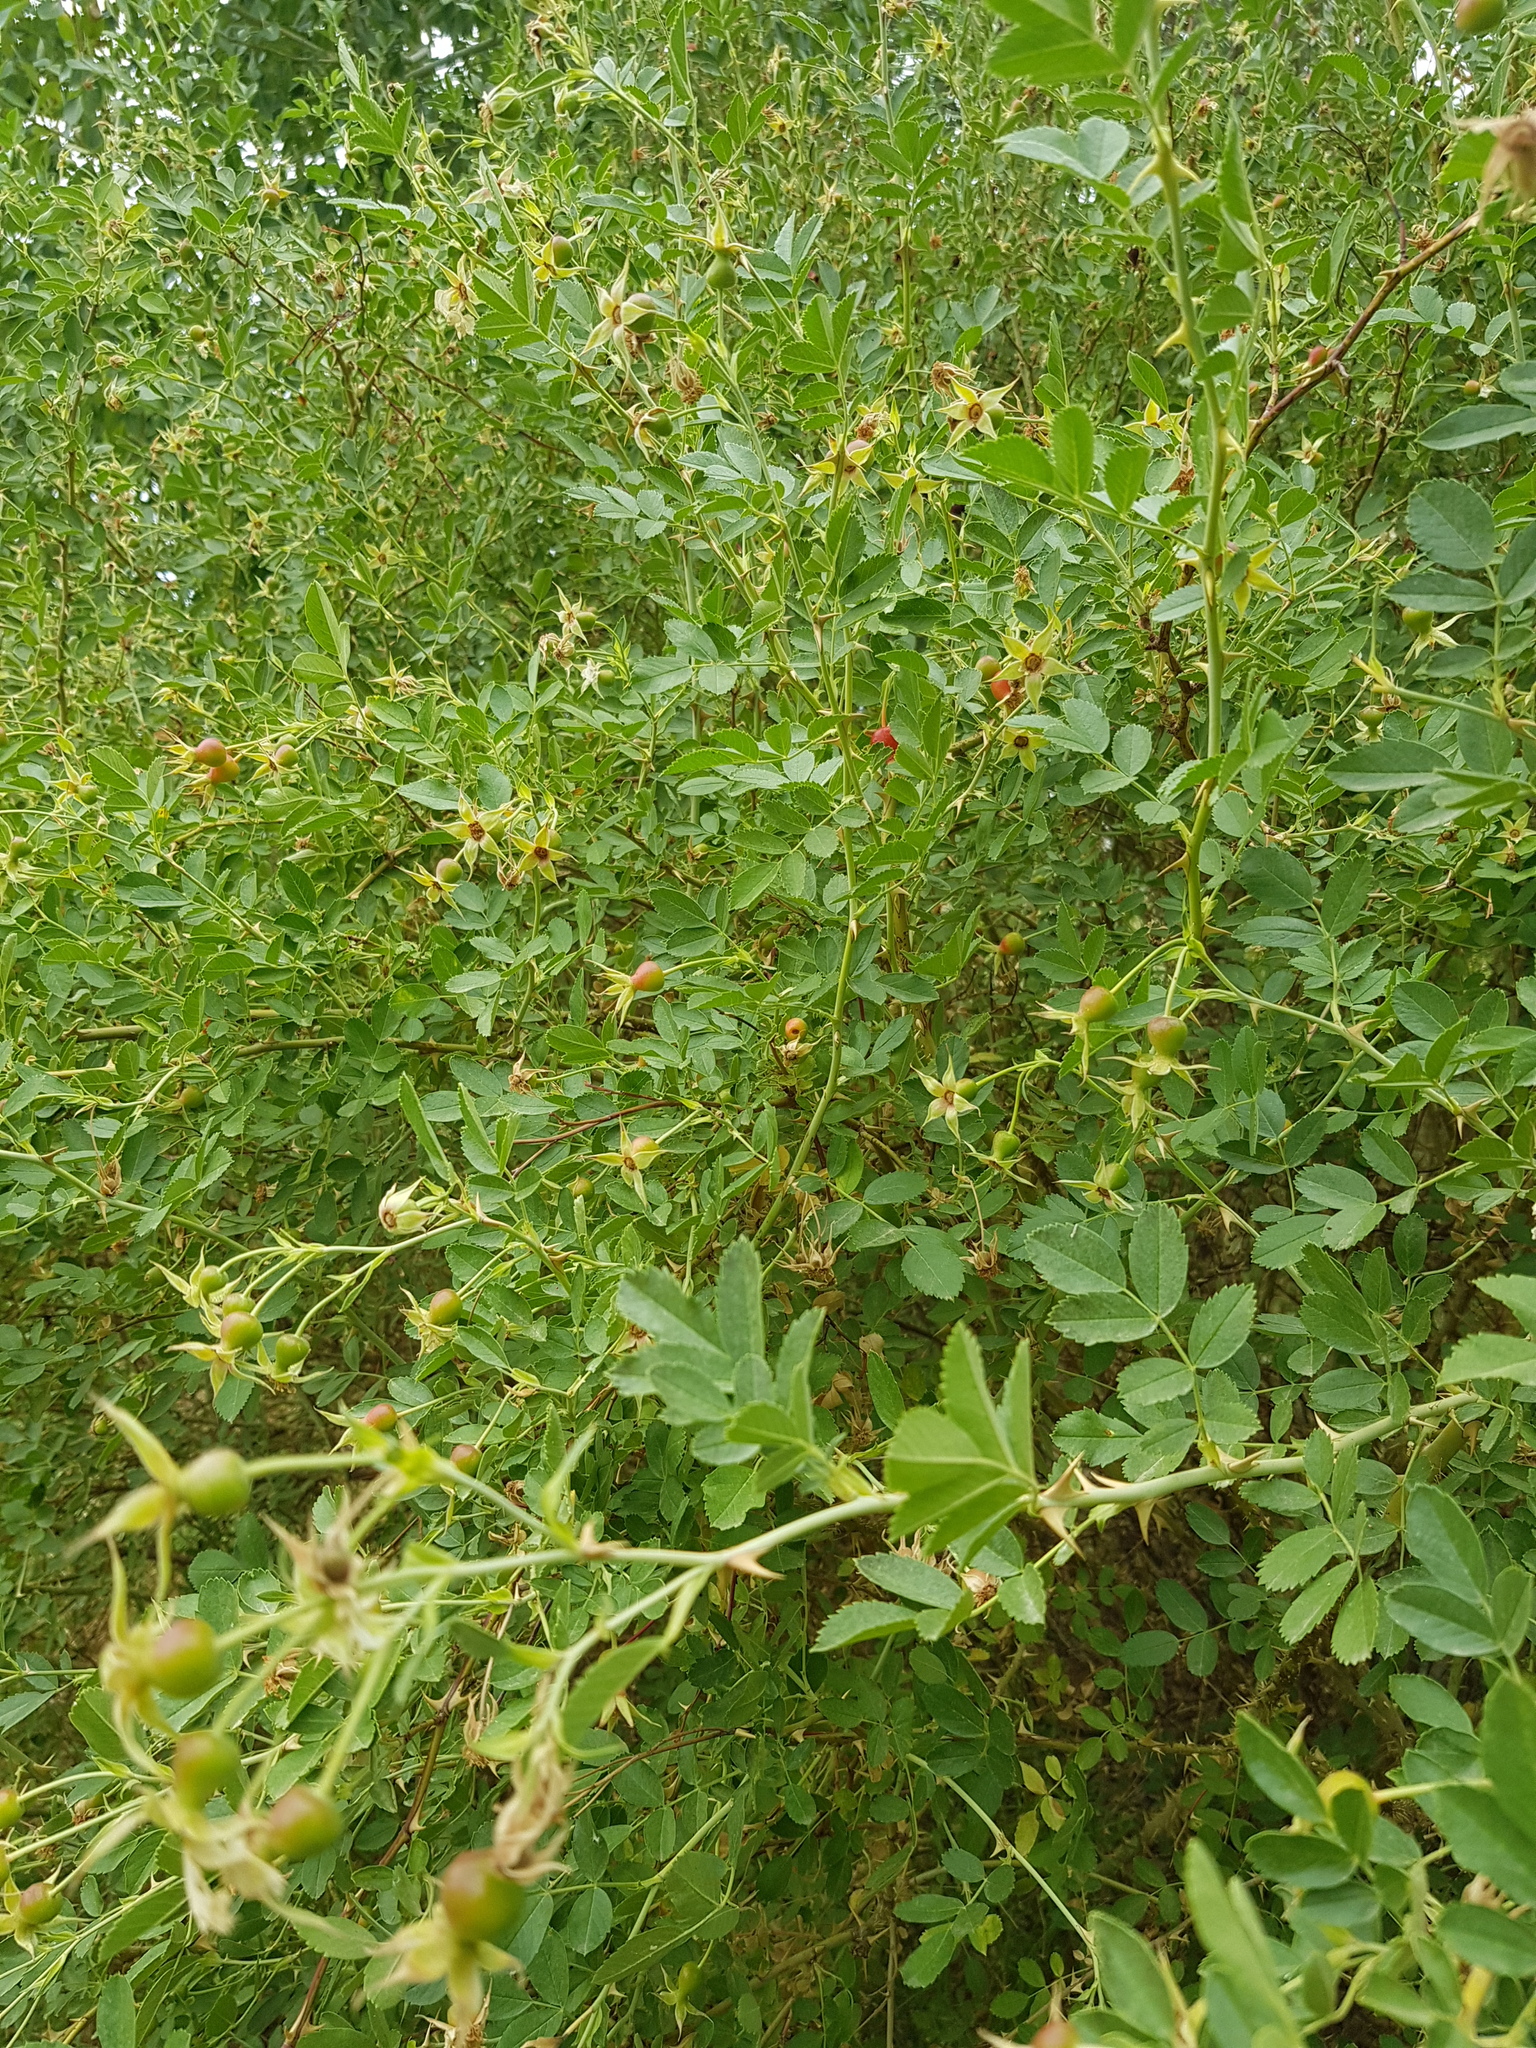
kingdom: Plantae
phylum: Tracheophyta
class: Magnoliopsida
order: Rosales
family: Rosaceae
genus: Rosa
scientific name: Rosa laxa
